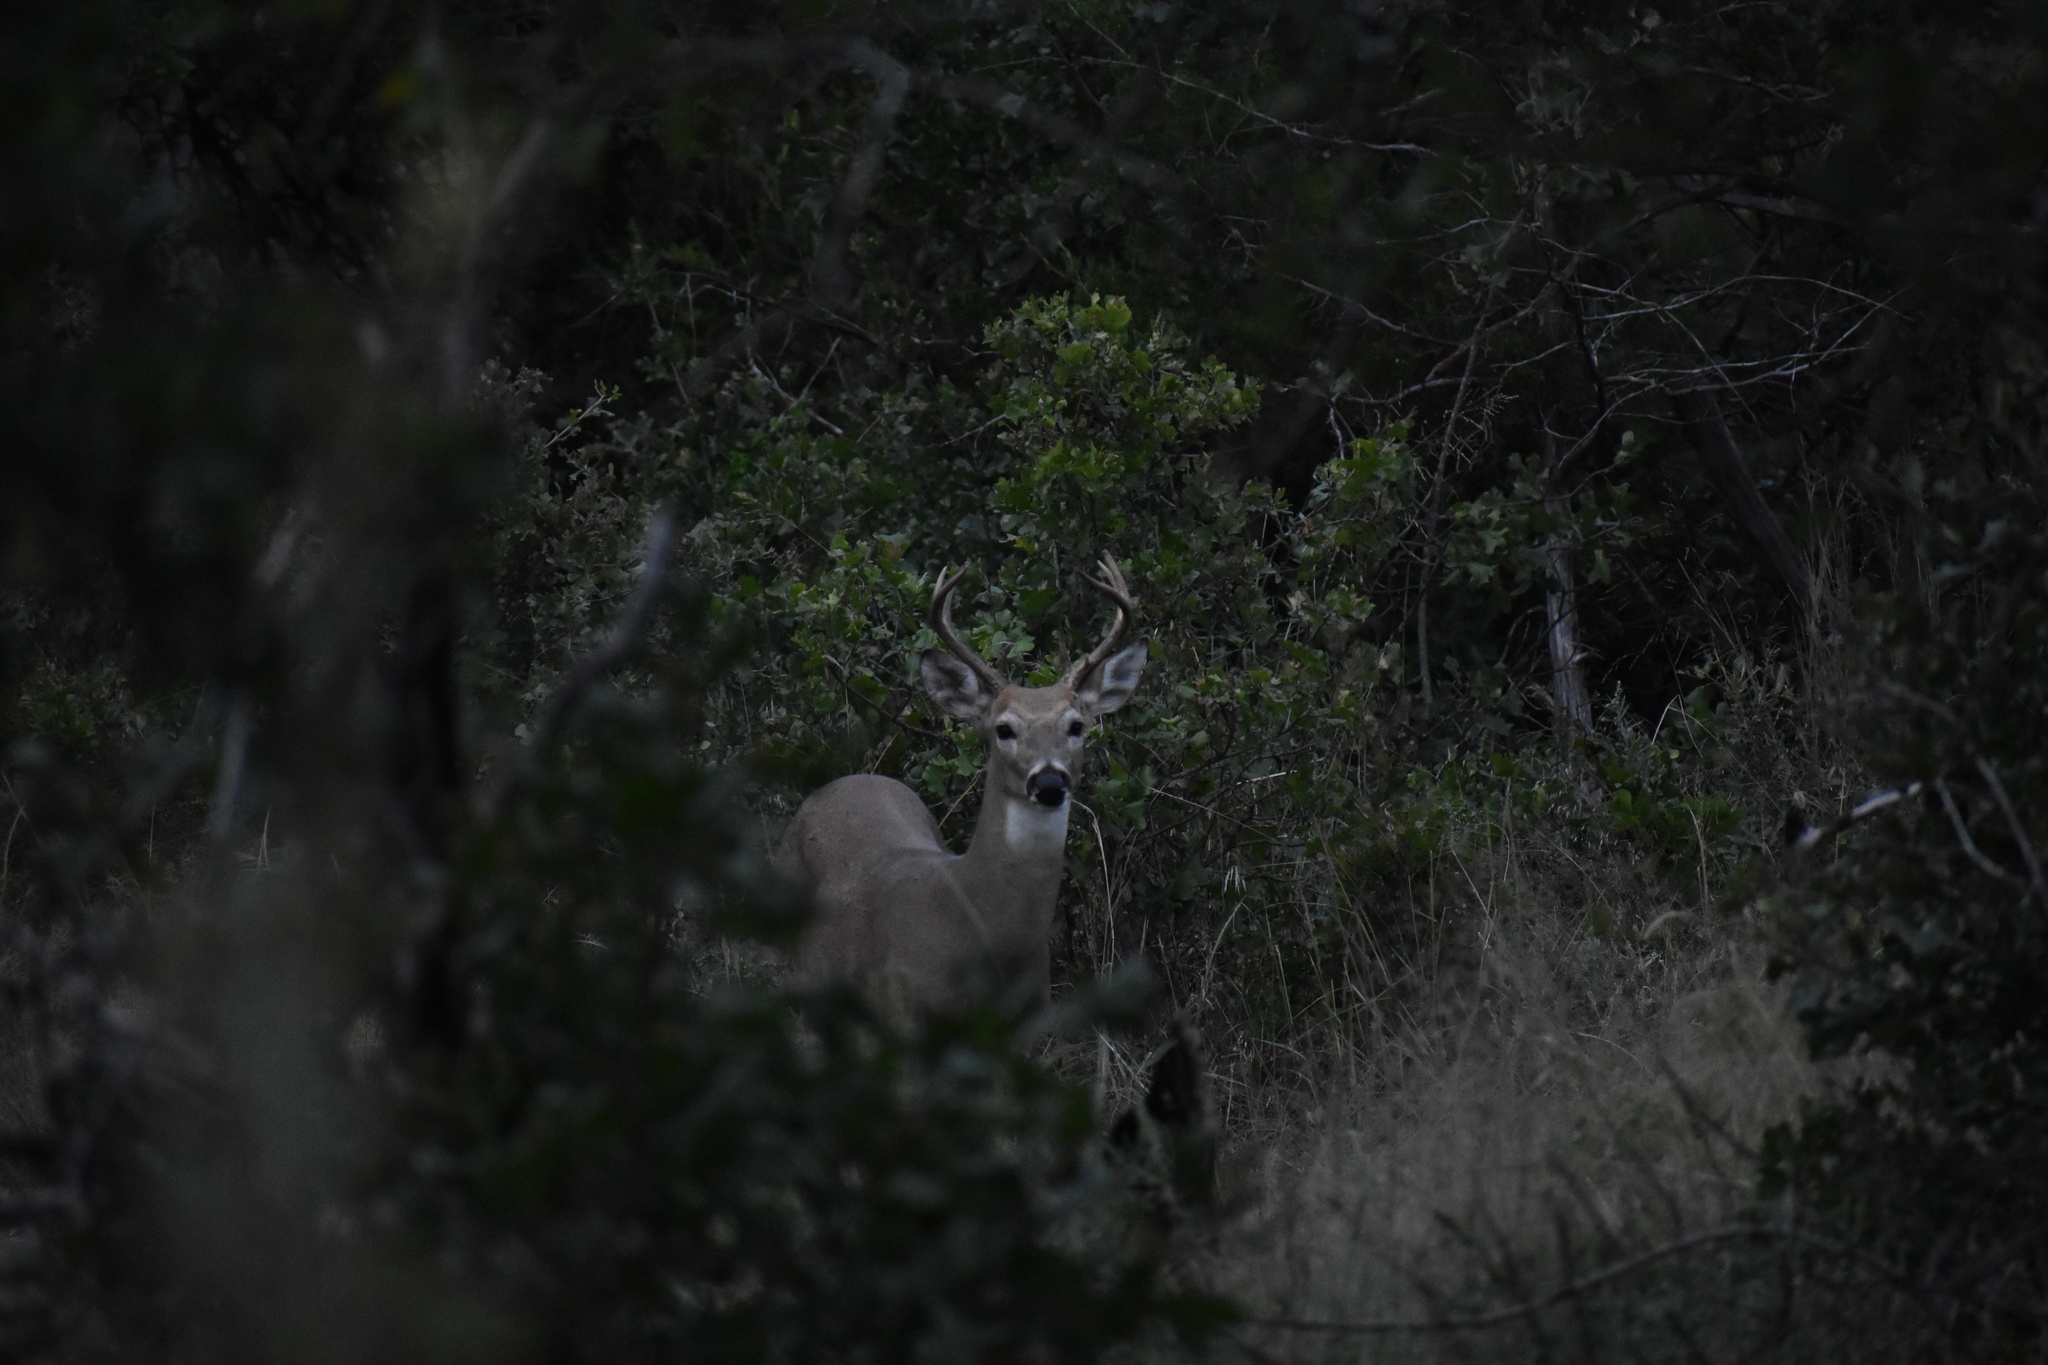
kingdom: Animalia
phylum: Chordata
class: Mammalia
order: Artiodactyla
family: Cervidae
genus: Odocoileus
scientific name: Odocoileus virginianus
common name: White-tailed deer
